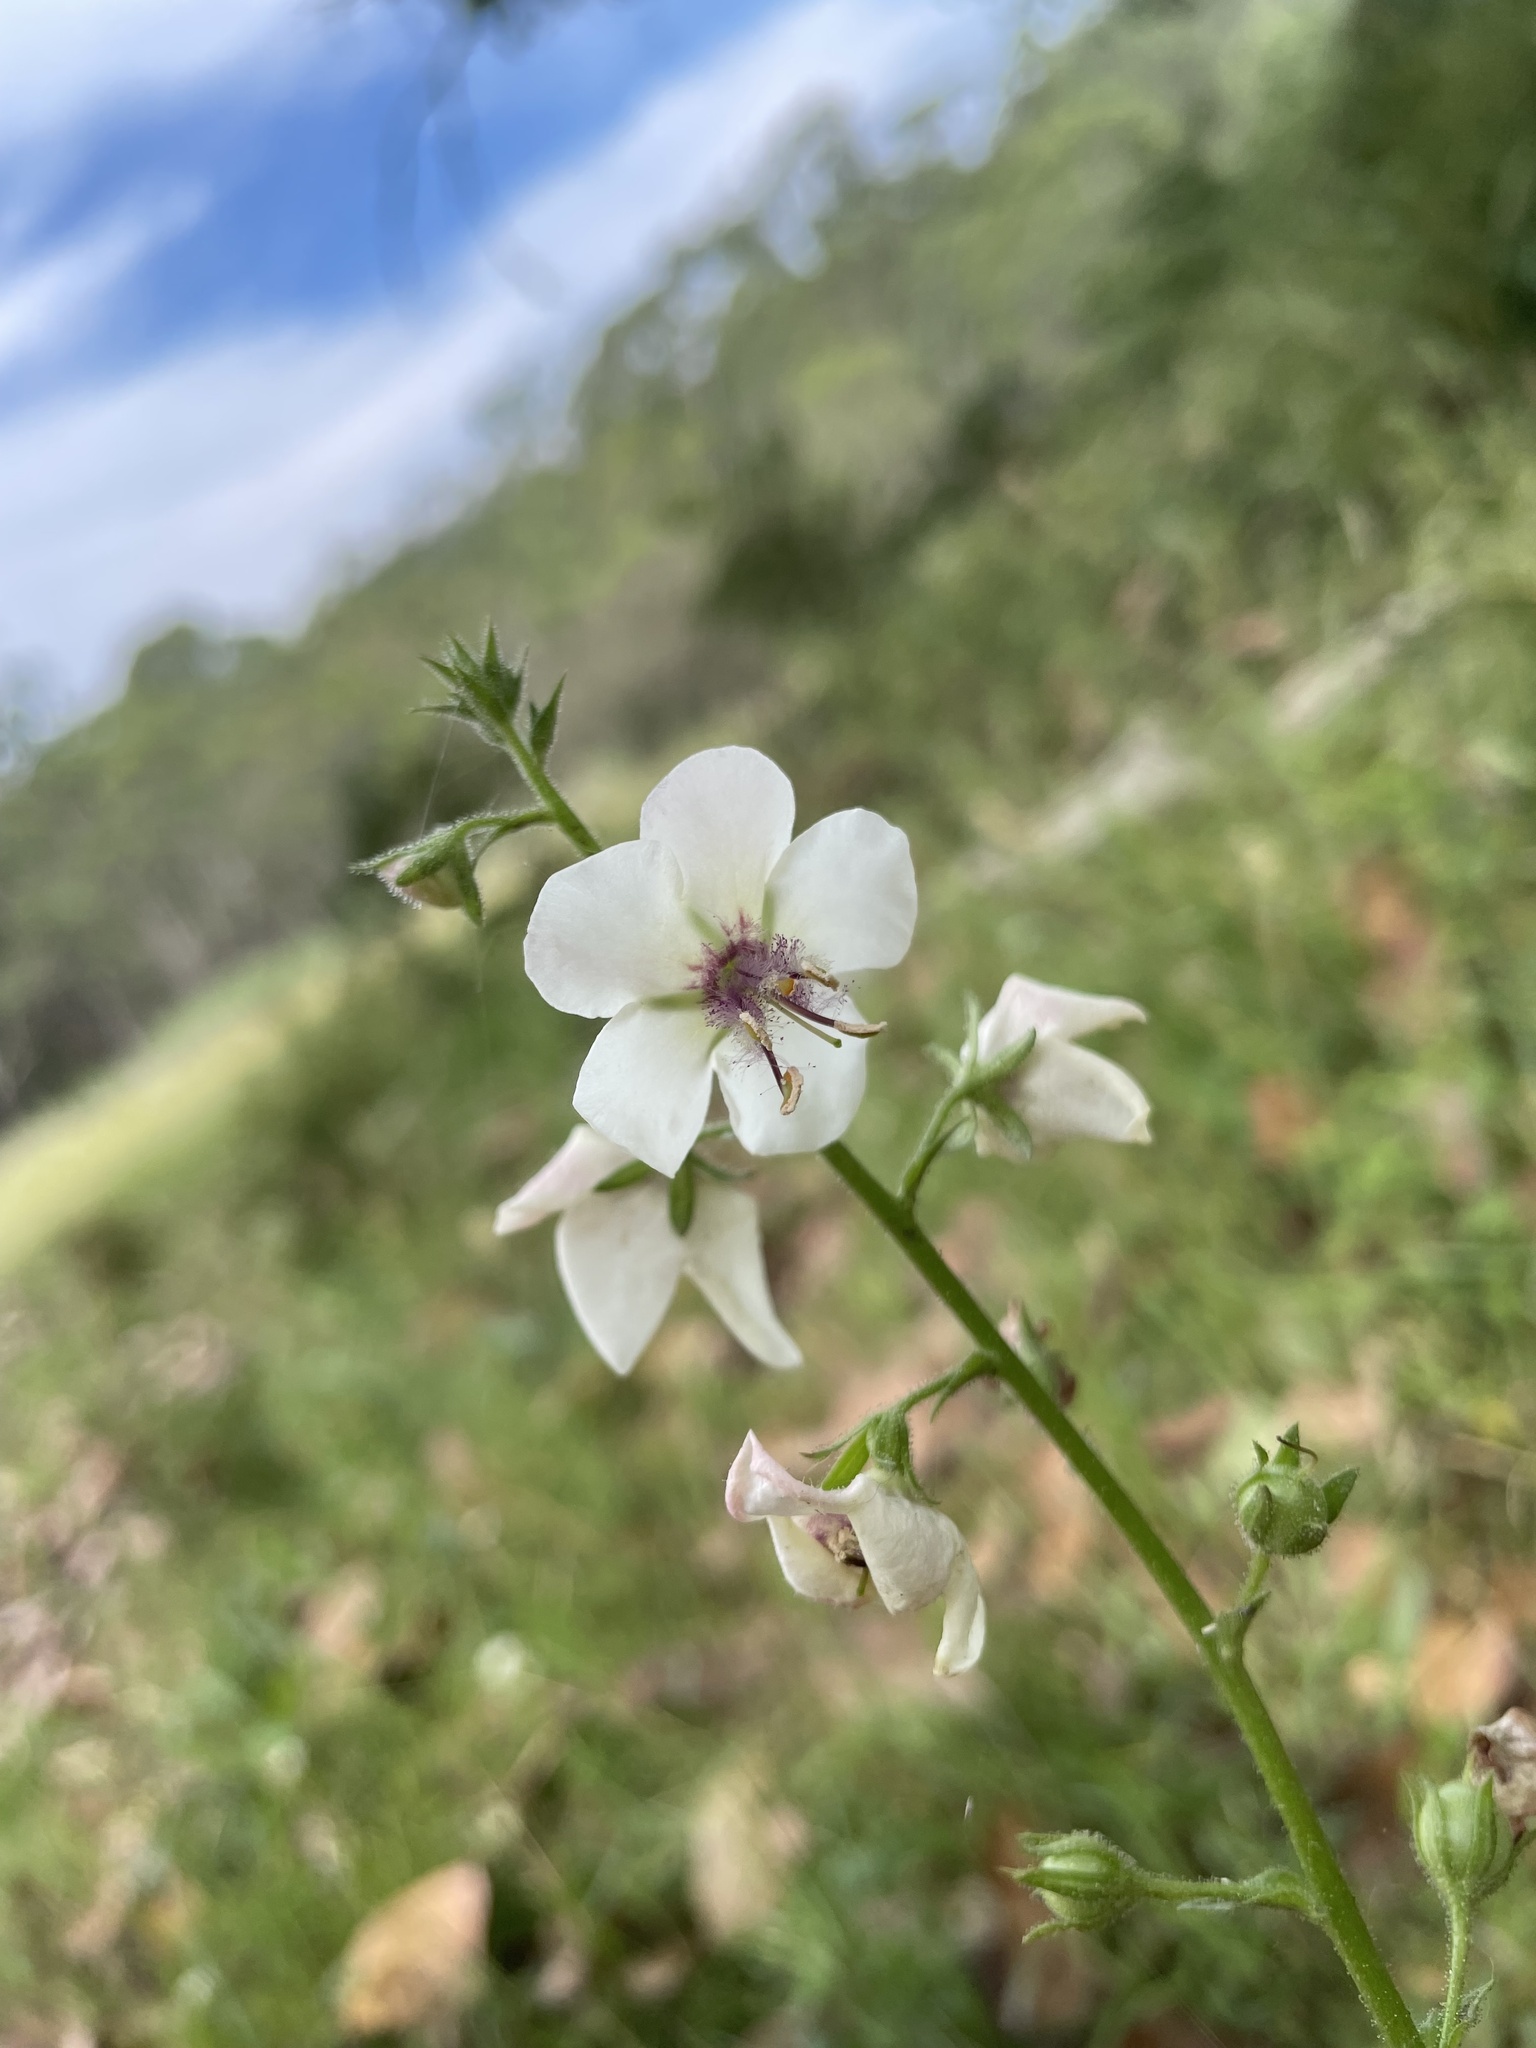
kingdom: Plantae
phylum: Tracheophyta
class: Magnoliopsida
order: Lamiales
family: Scrophulariaceae
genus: Verbascum
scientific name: Verbascum blattaria
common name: Moth mullein
